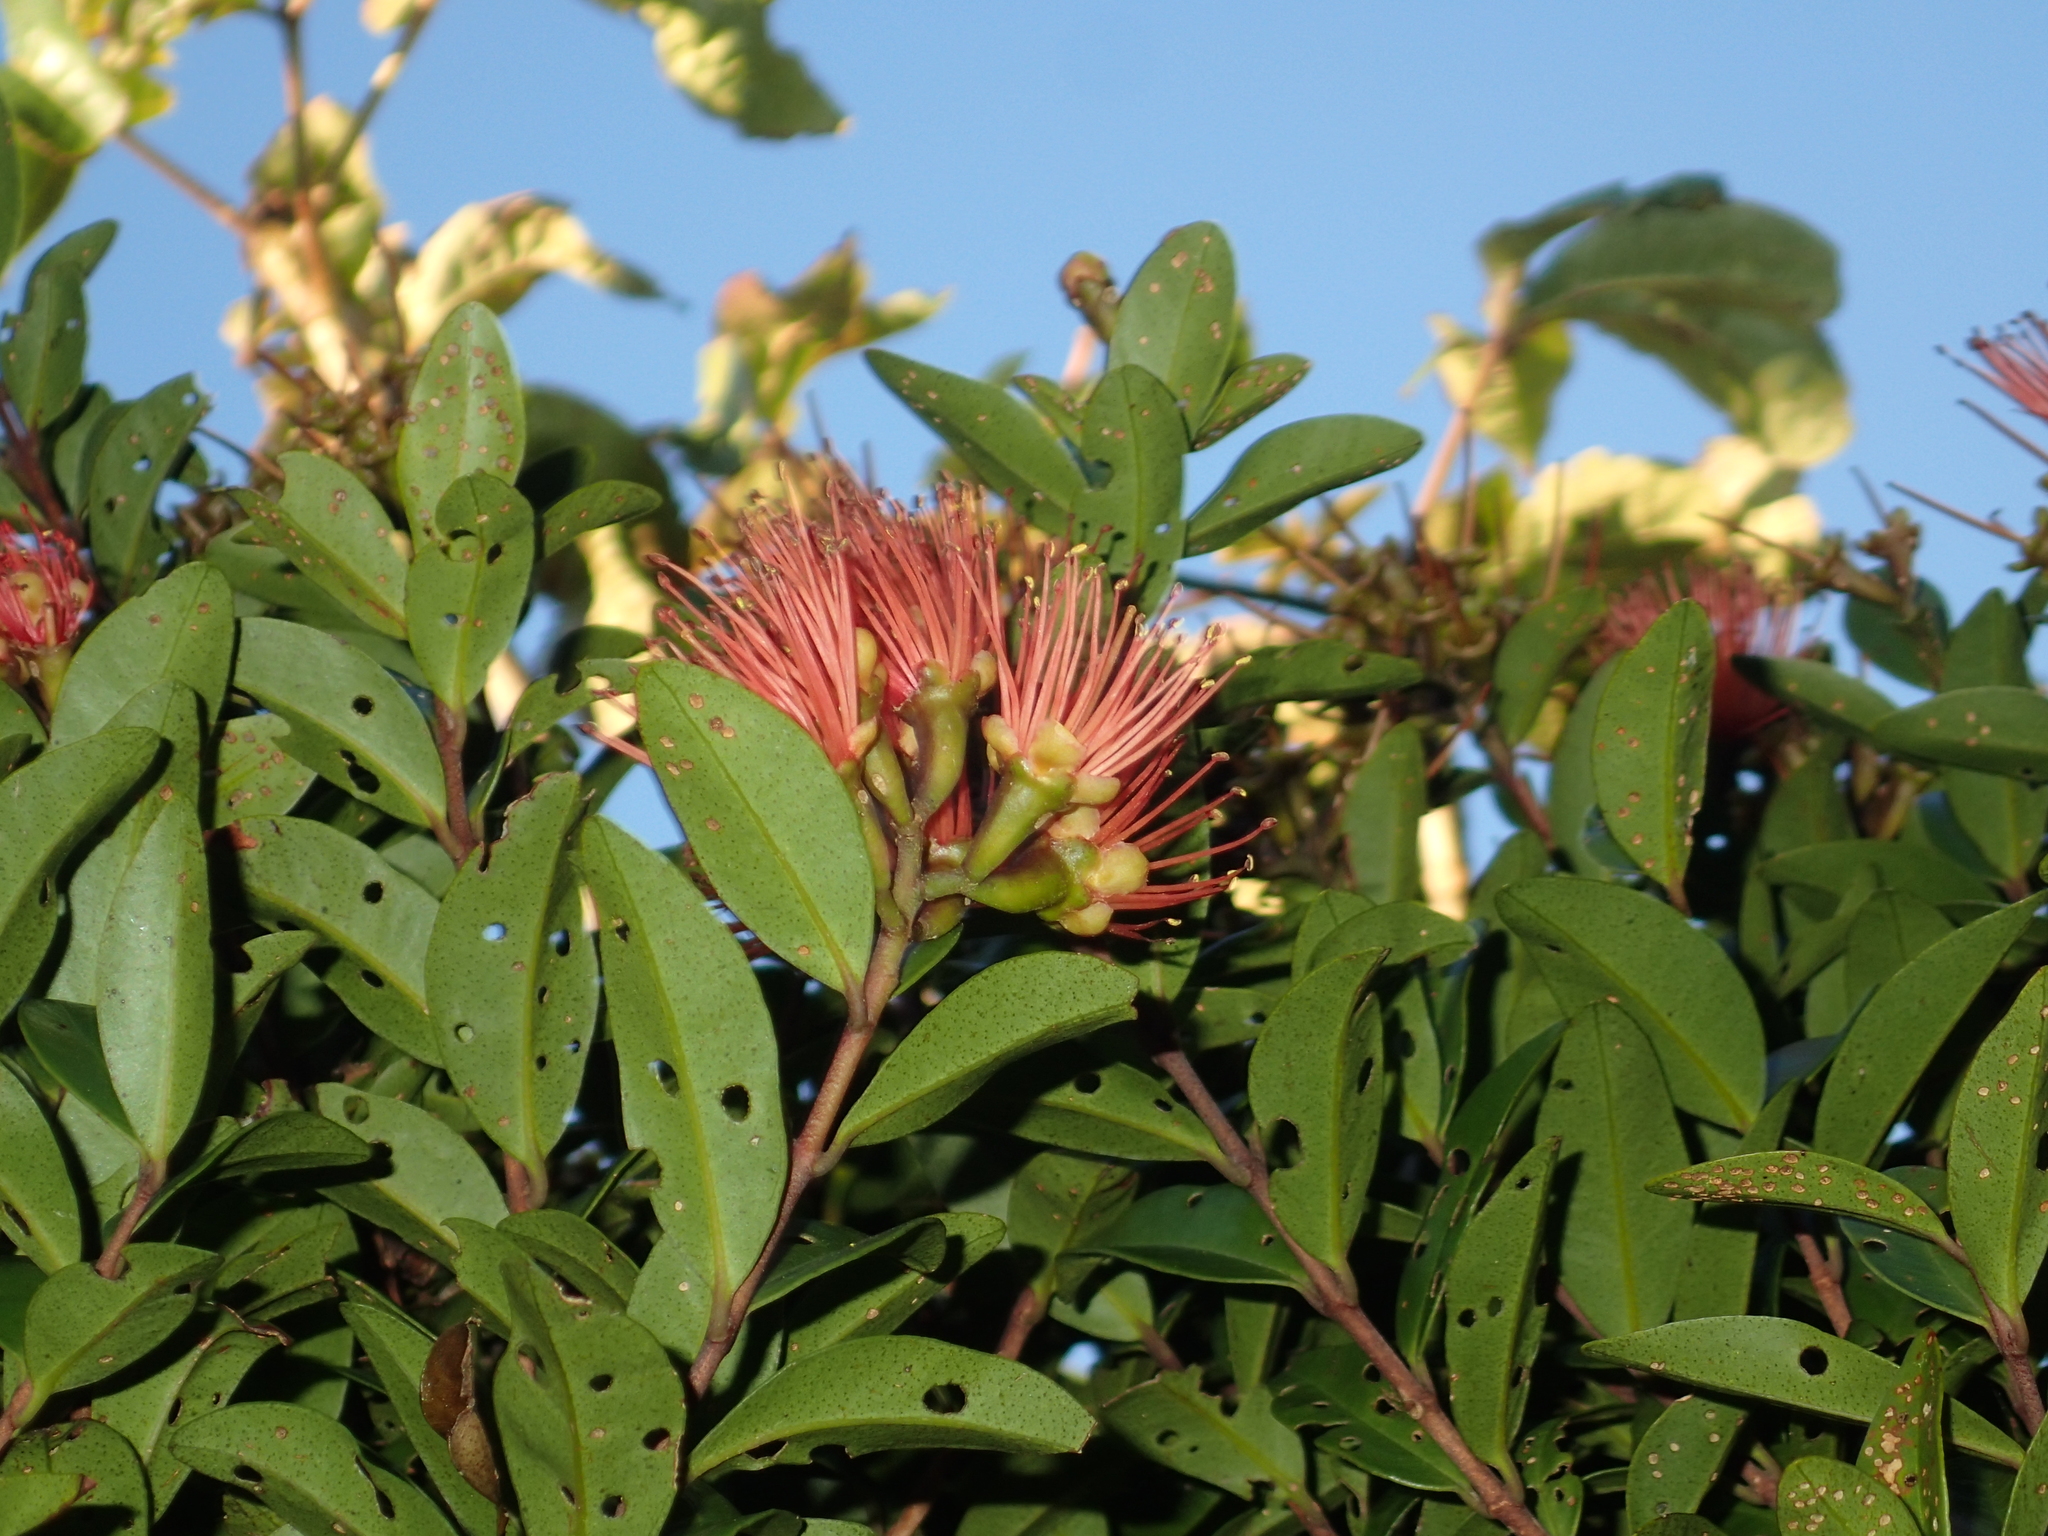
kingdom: Plantae
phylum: Tracheophyta
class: Magnoliopsida
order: Myrtales
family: Myrtaceae
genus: Metrosideros
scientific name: Metrosideros fulgens
